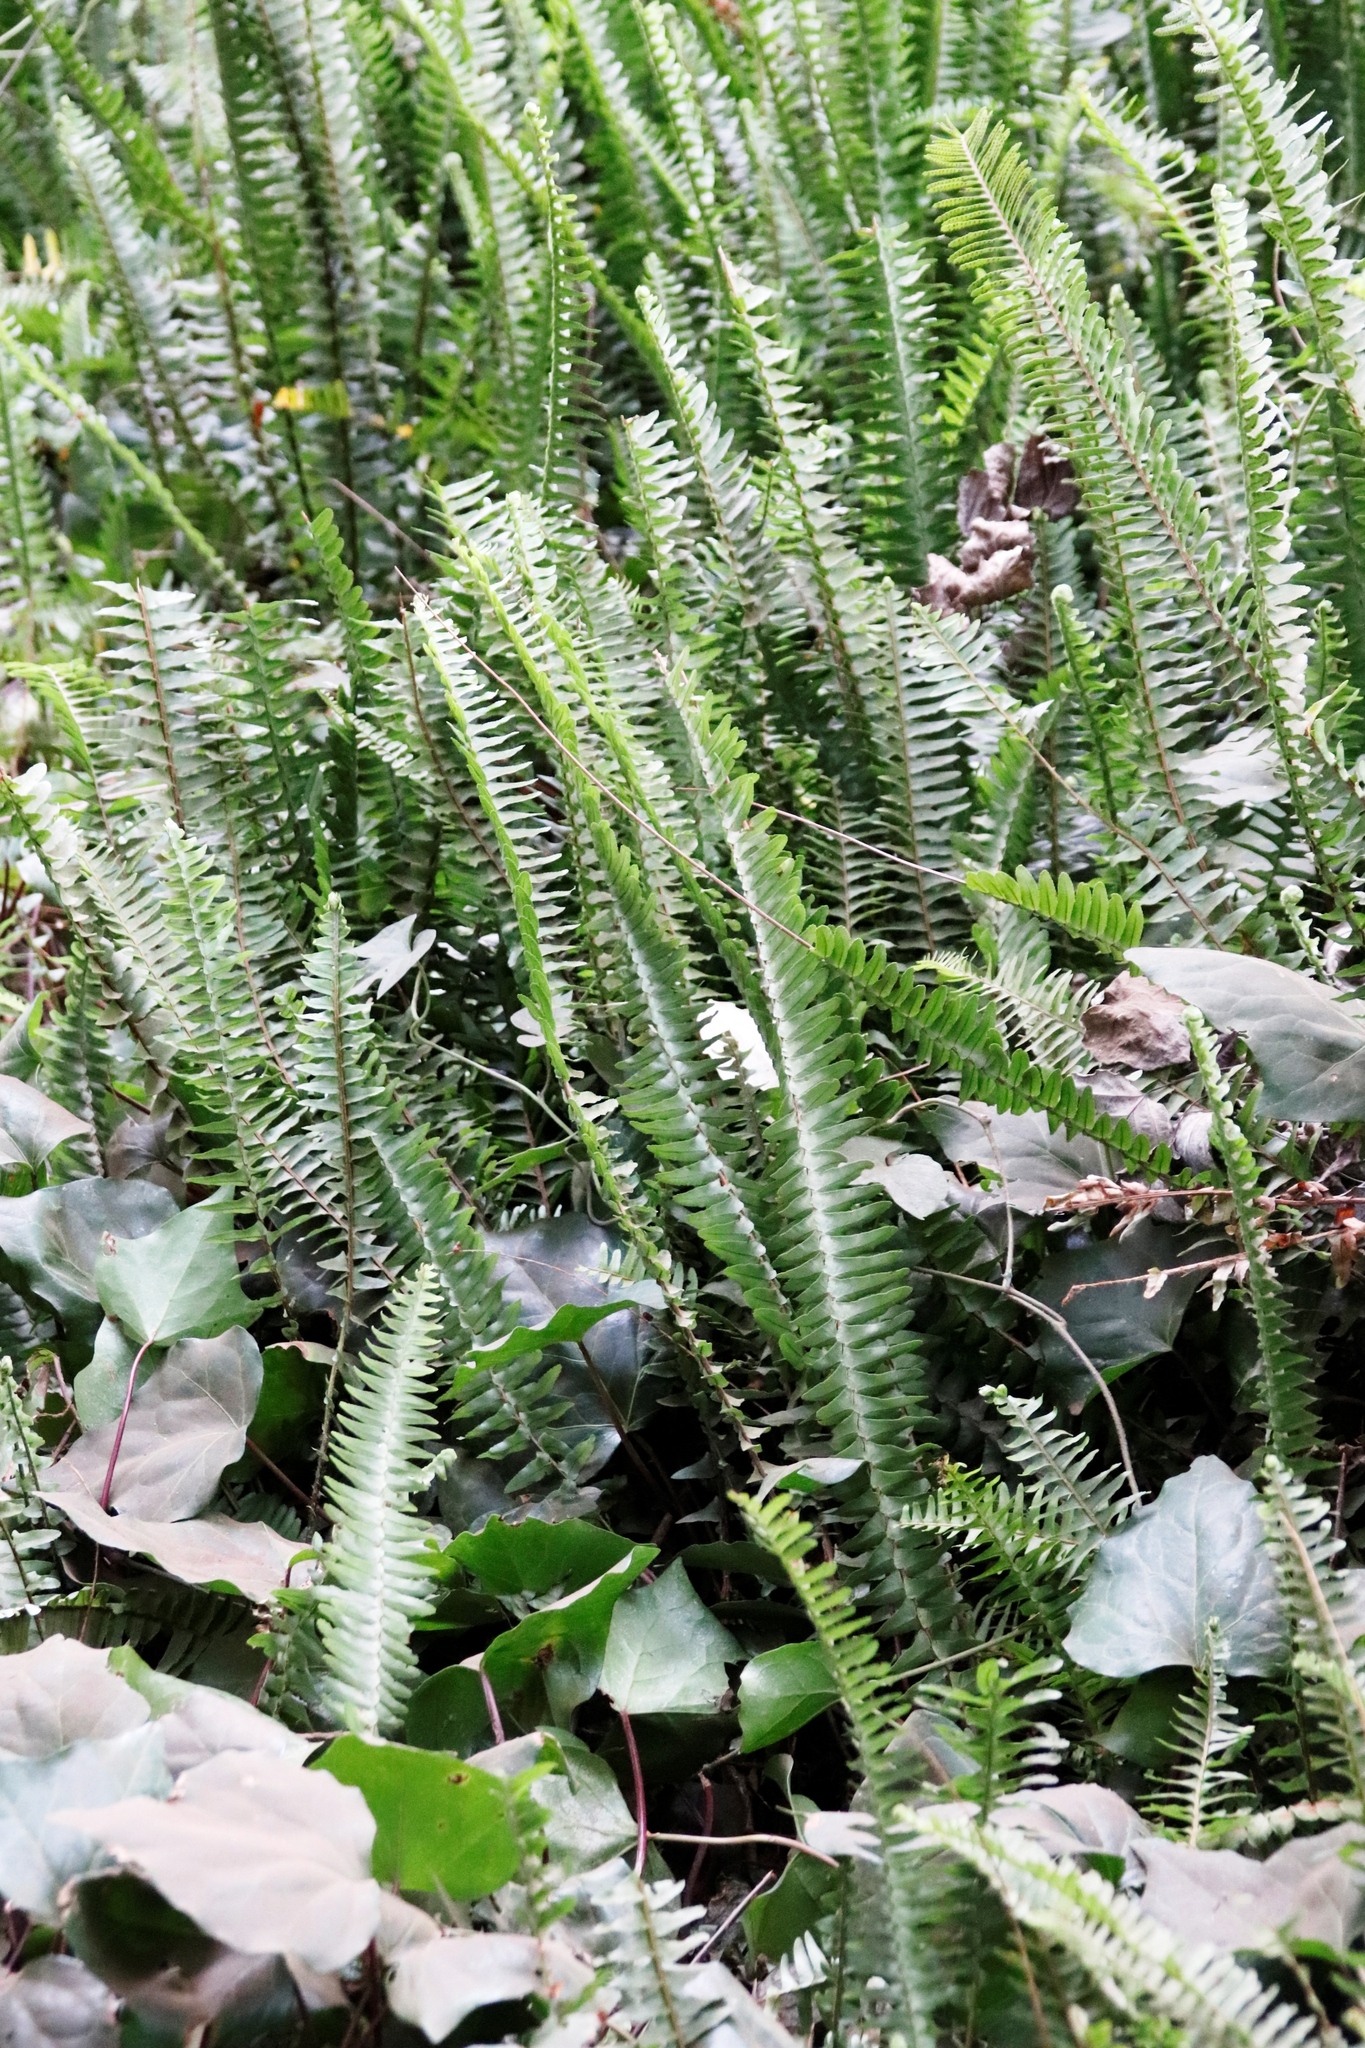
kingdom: Plantae
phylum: Tracheophyta
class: Polypodiopsida
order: Polypodiales
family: Nephrolepidaceae
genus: Nephrolepis
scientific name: Nephrolepis cordifolia
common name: Narrow swordfern
